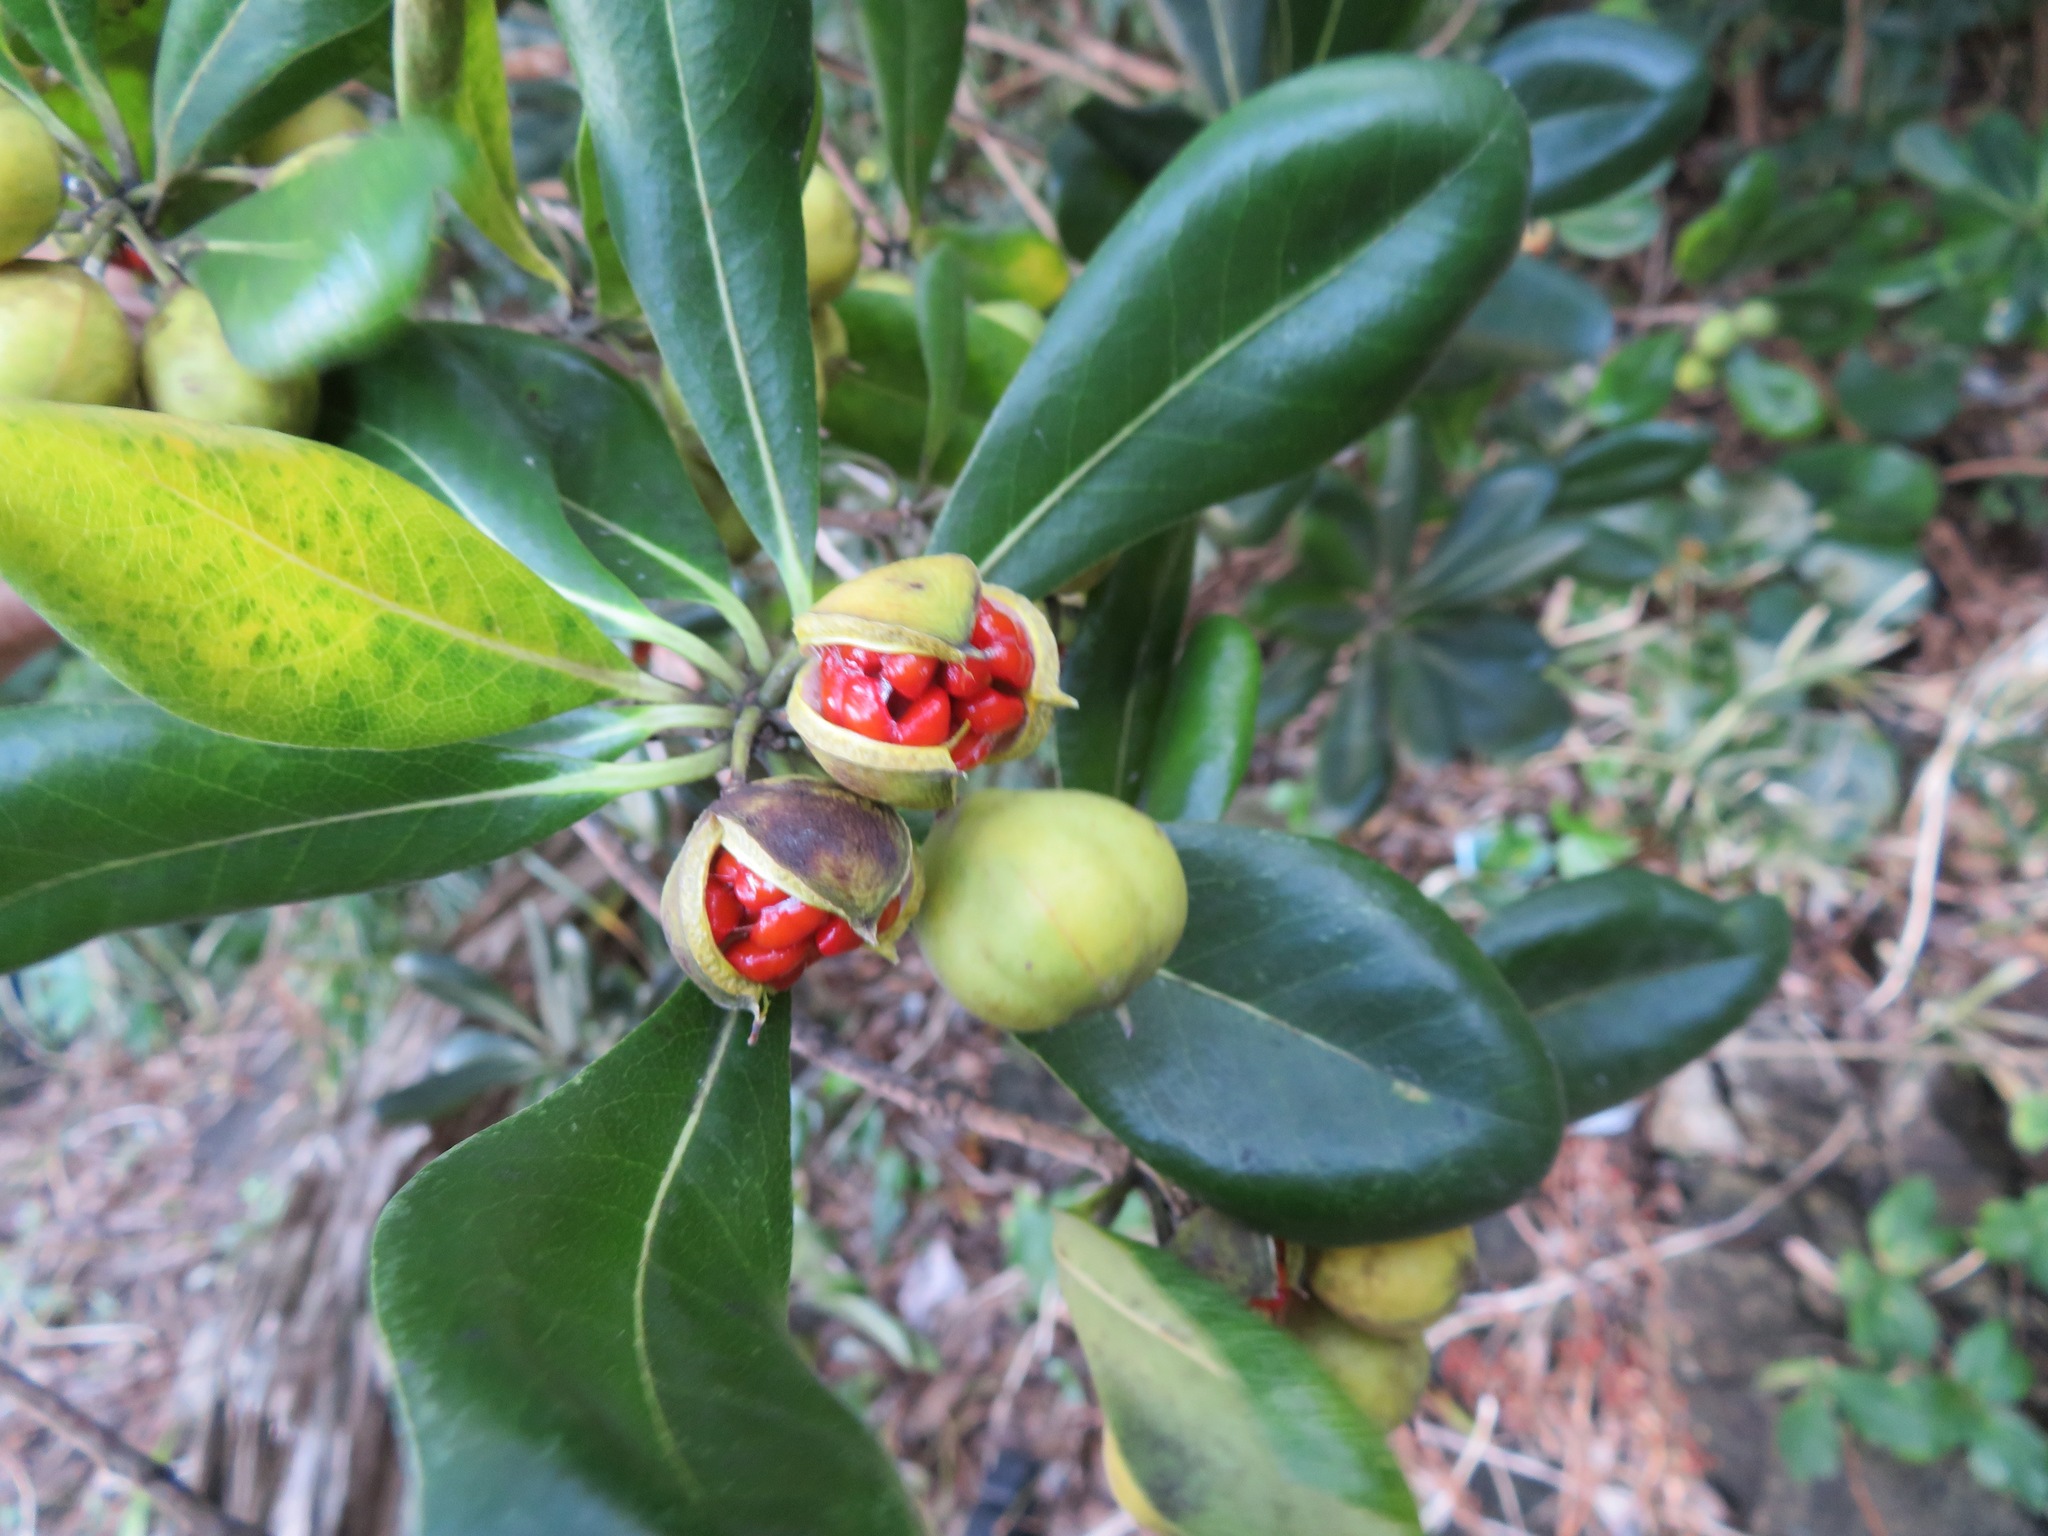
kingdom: Plantae
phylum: Tracheophyta
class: Magnoliopsida
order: Apiales
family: Pittosporaceae
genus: Pittosporum
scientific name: Pittosporum tobira
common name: Japanese cheesewood
